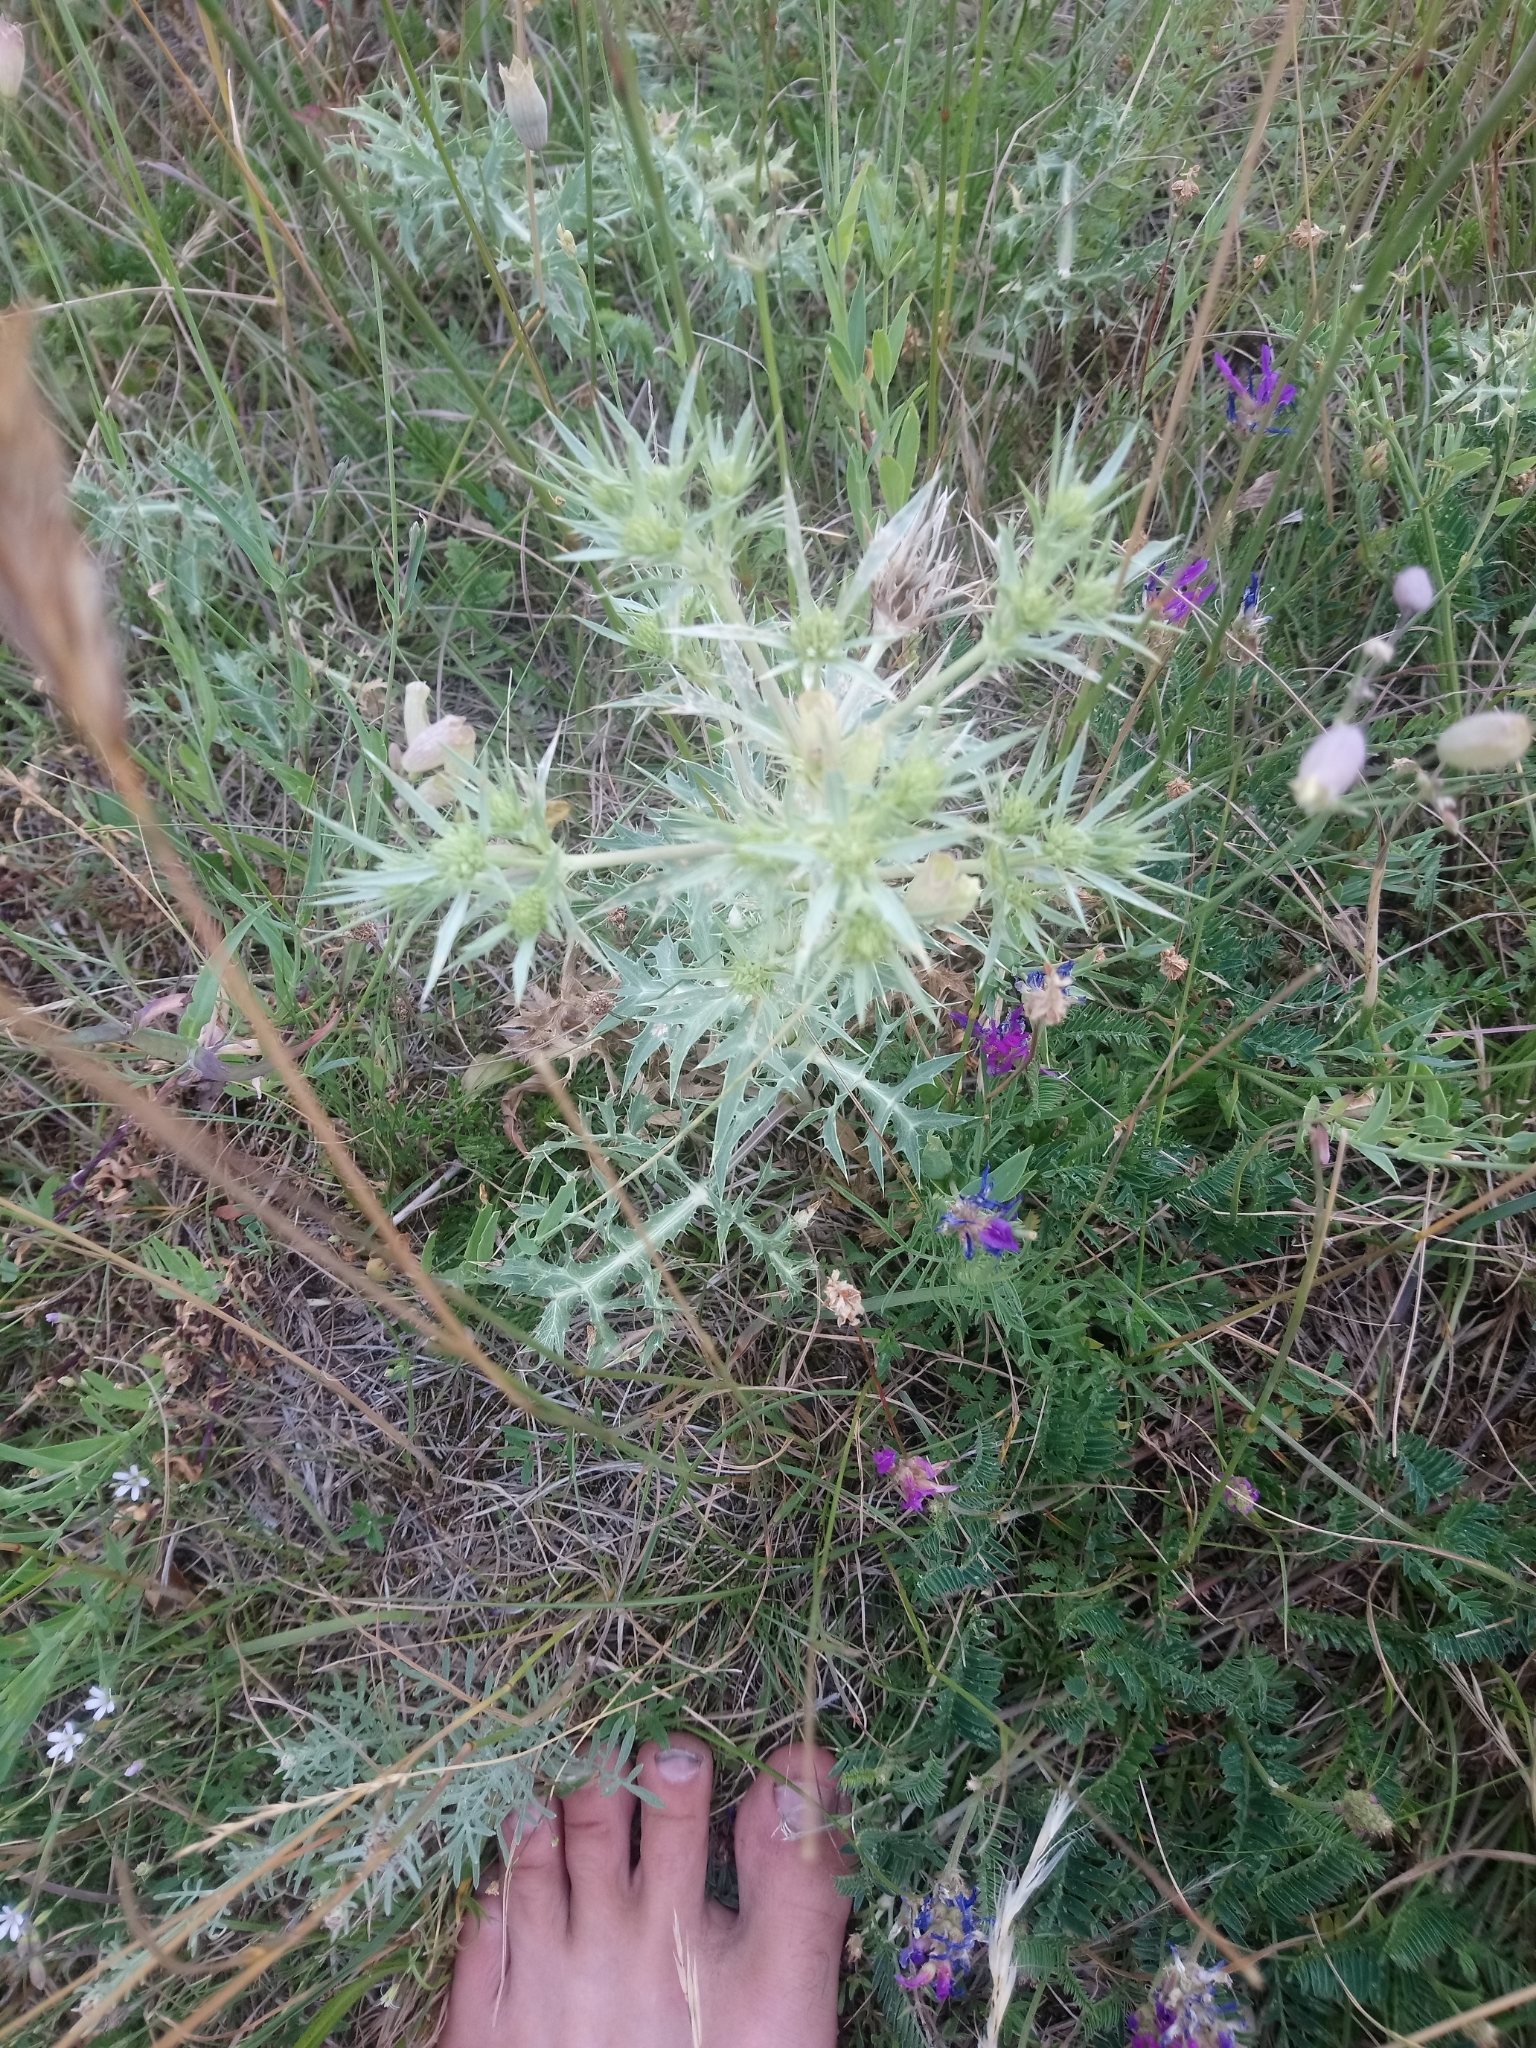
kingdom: Plantae
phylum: Tracheophyta
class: Magnoliopsida
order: Apiales
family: Apiaceae
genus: Eryngium
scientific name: Eryngium campestre
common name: Field eryngo
